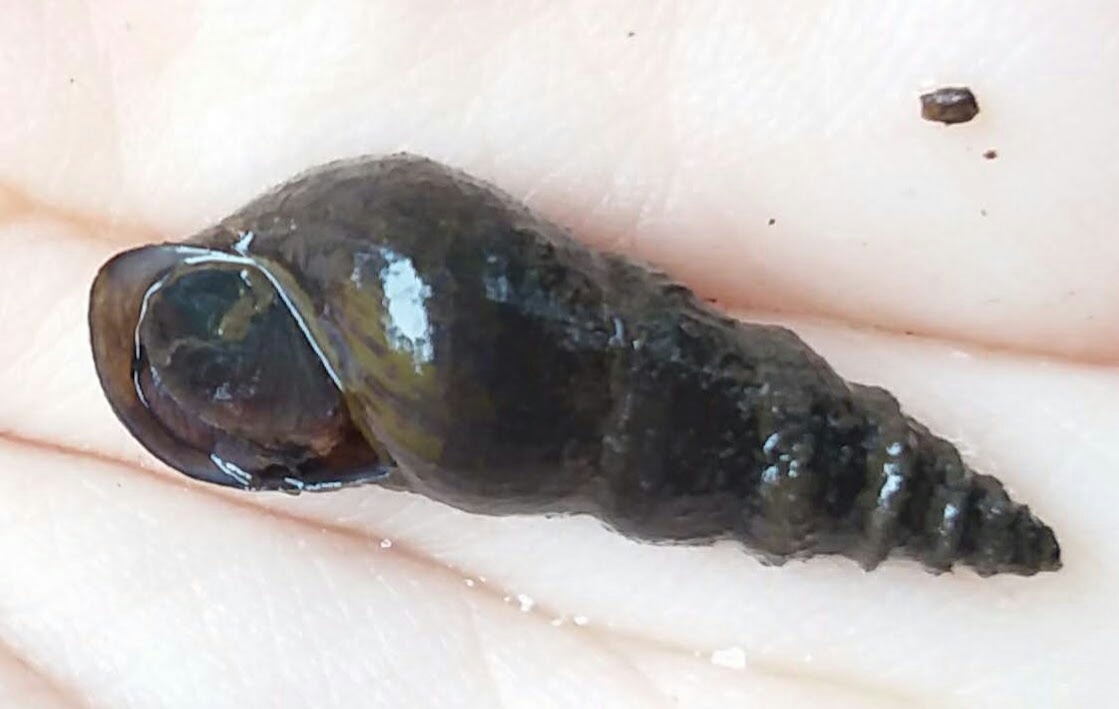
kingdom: Animalia
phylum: Mollusca
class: Gastropoda
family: Pleuroceridae
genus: Elimia
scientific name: Elimia arachnoidea
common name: Spider elimia
